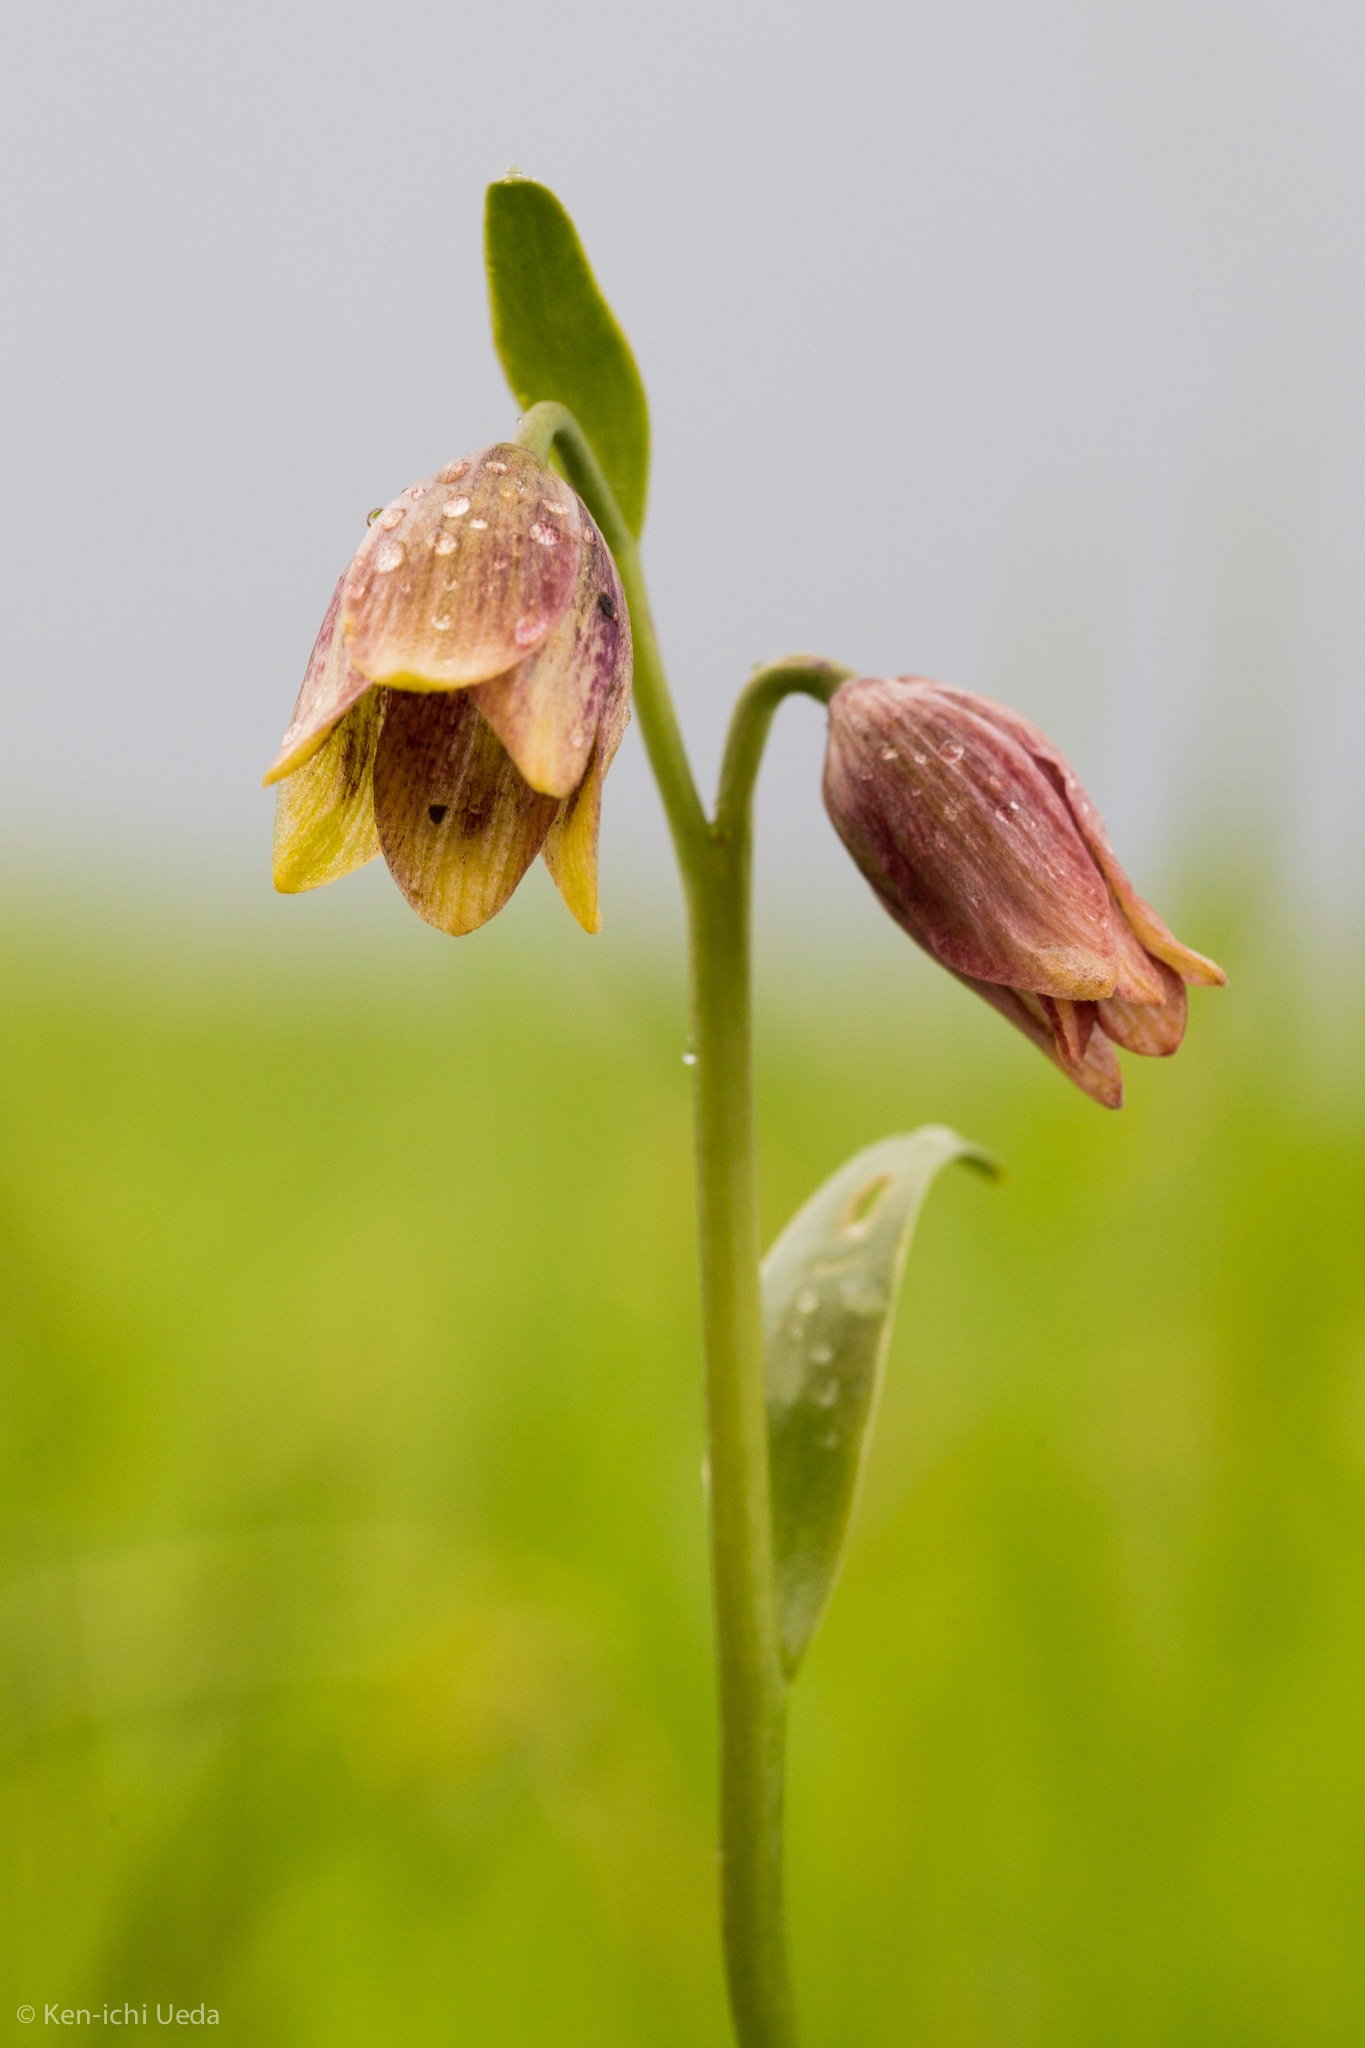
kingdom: Plantae
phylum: Tracheophyta
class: Liliopsida
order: Liliales
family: Liliaceae
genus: Fritillaria
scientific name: Fritillaria agrestis
